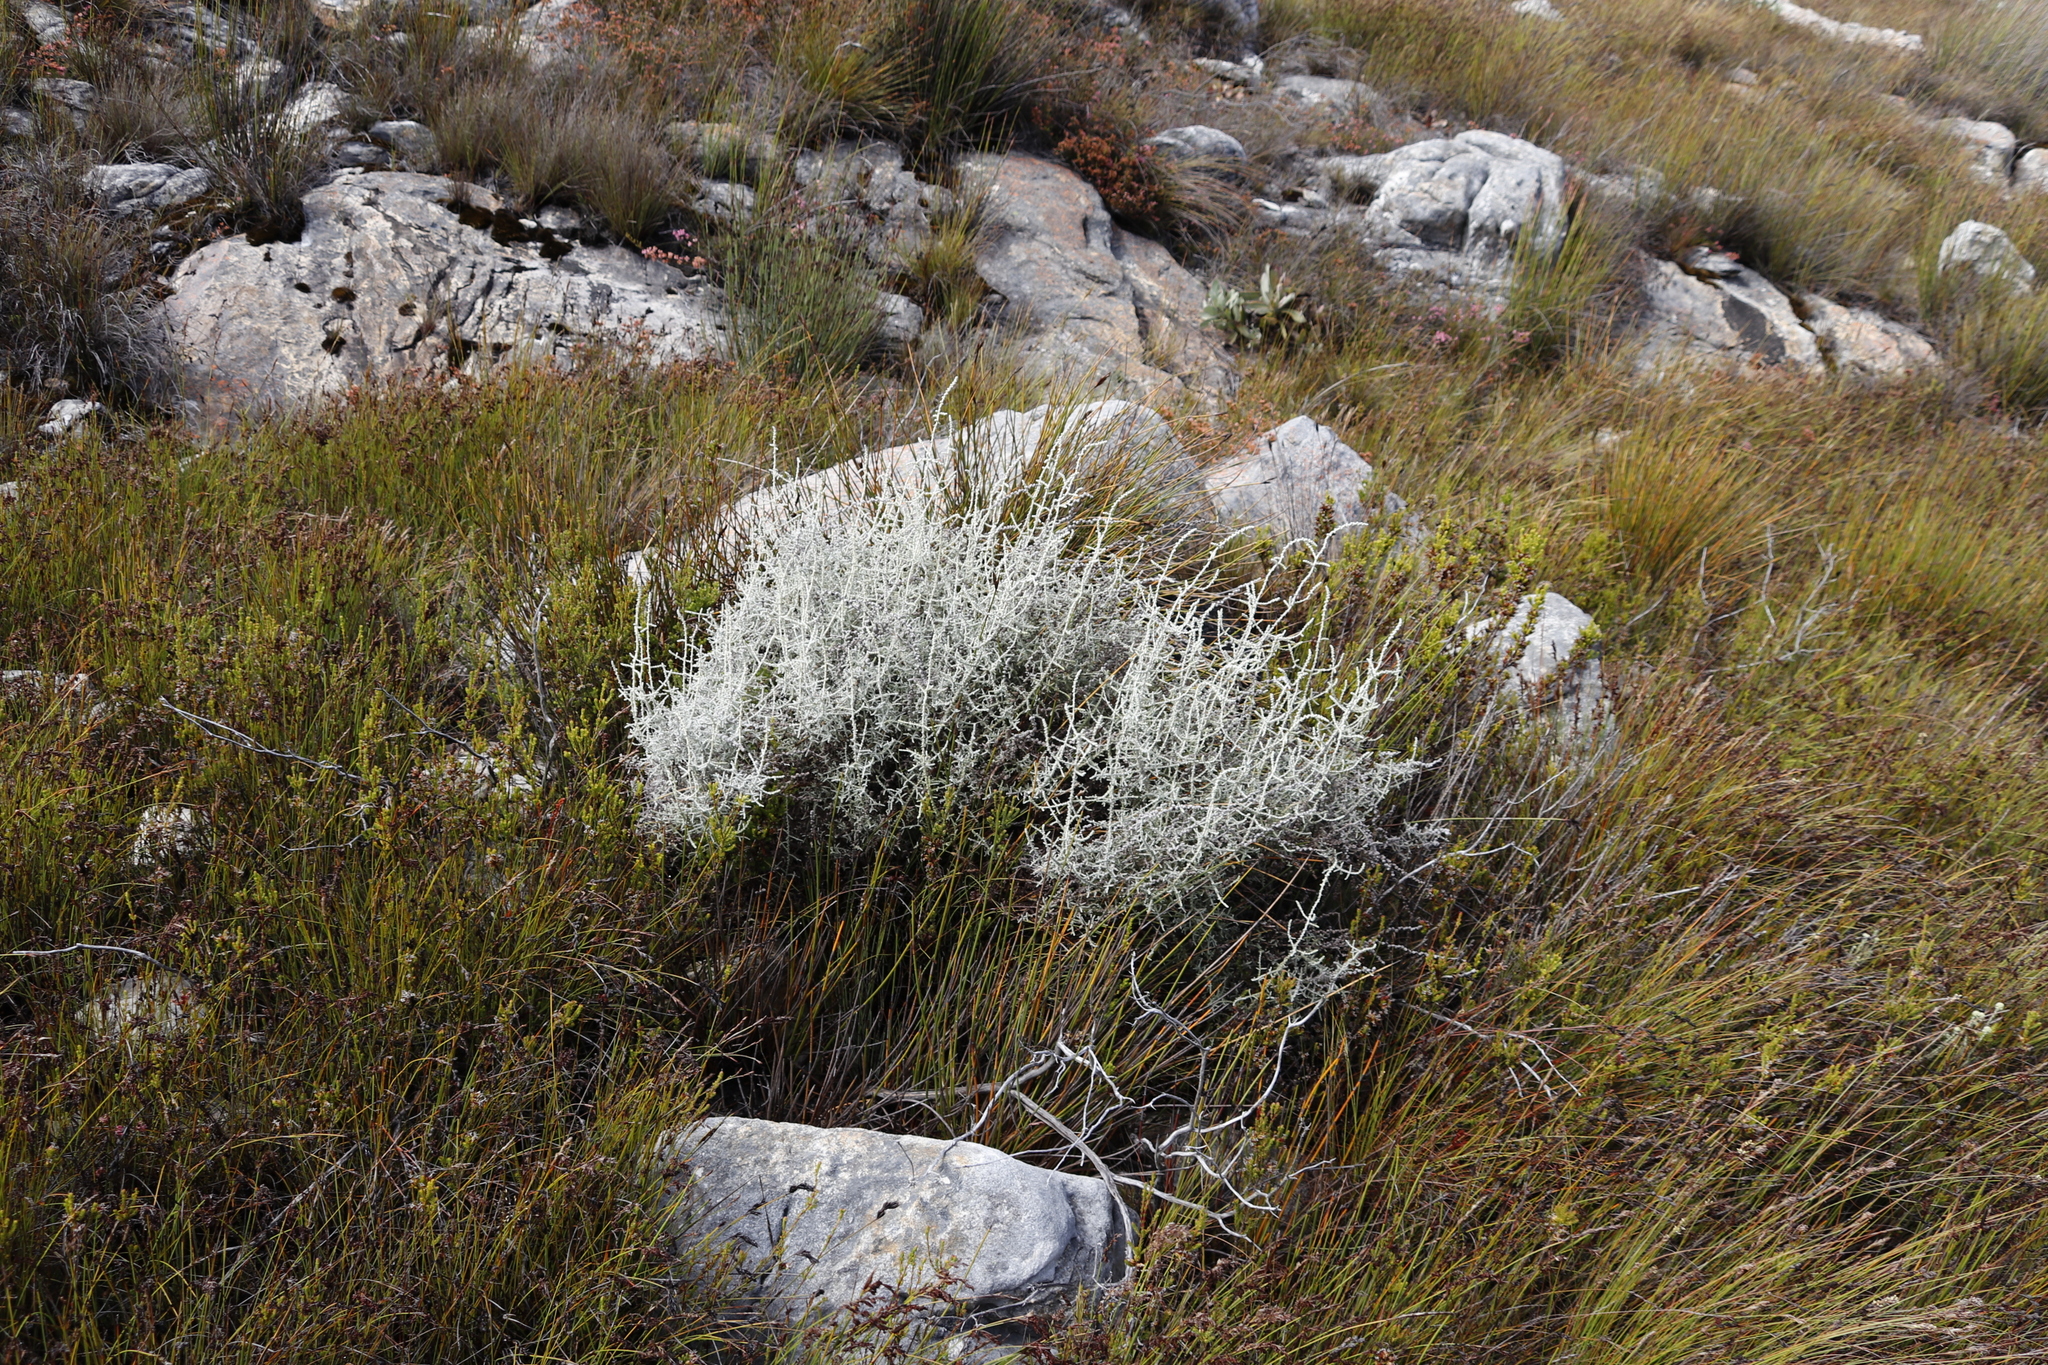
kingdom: Plantae
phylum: Tracheophyta
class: Magnoliopsida
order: Asterales
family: Asteraceae
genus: Seriphium
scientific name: Seriphium plumosum
